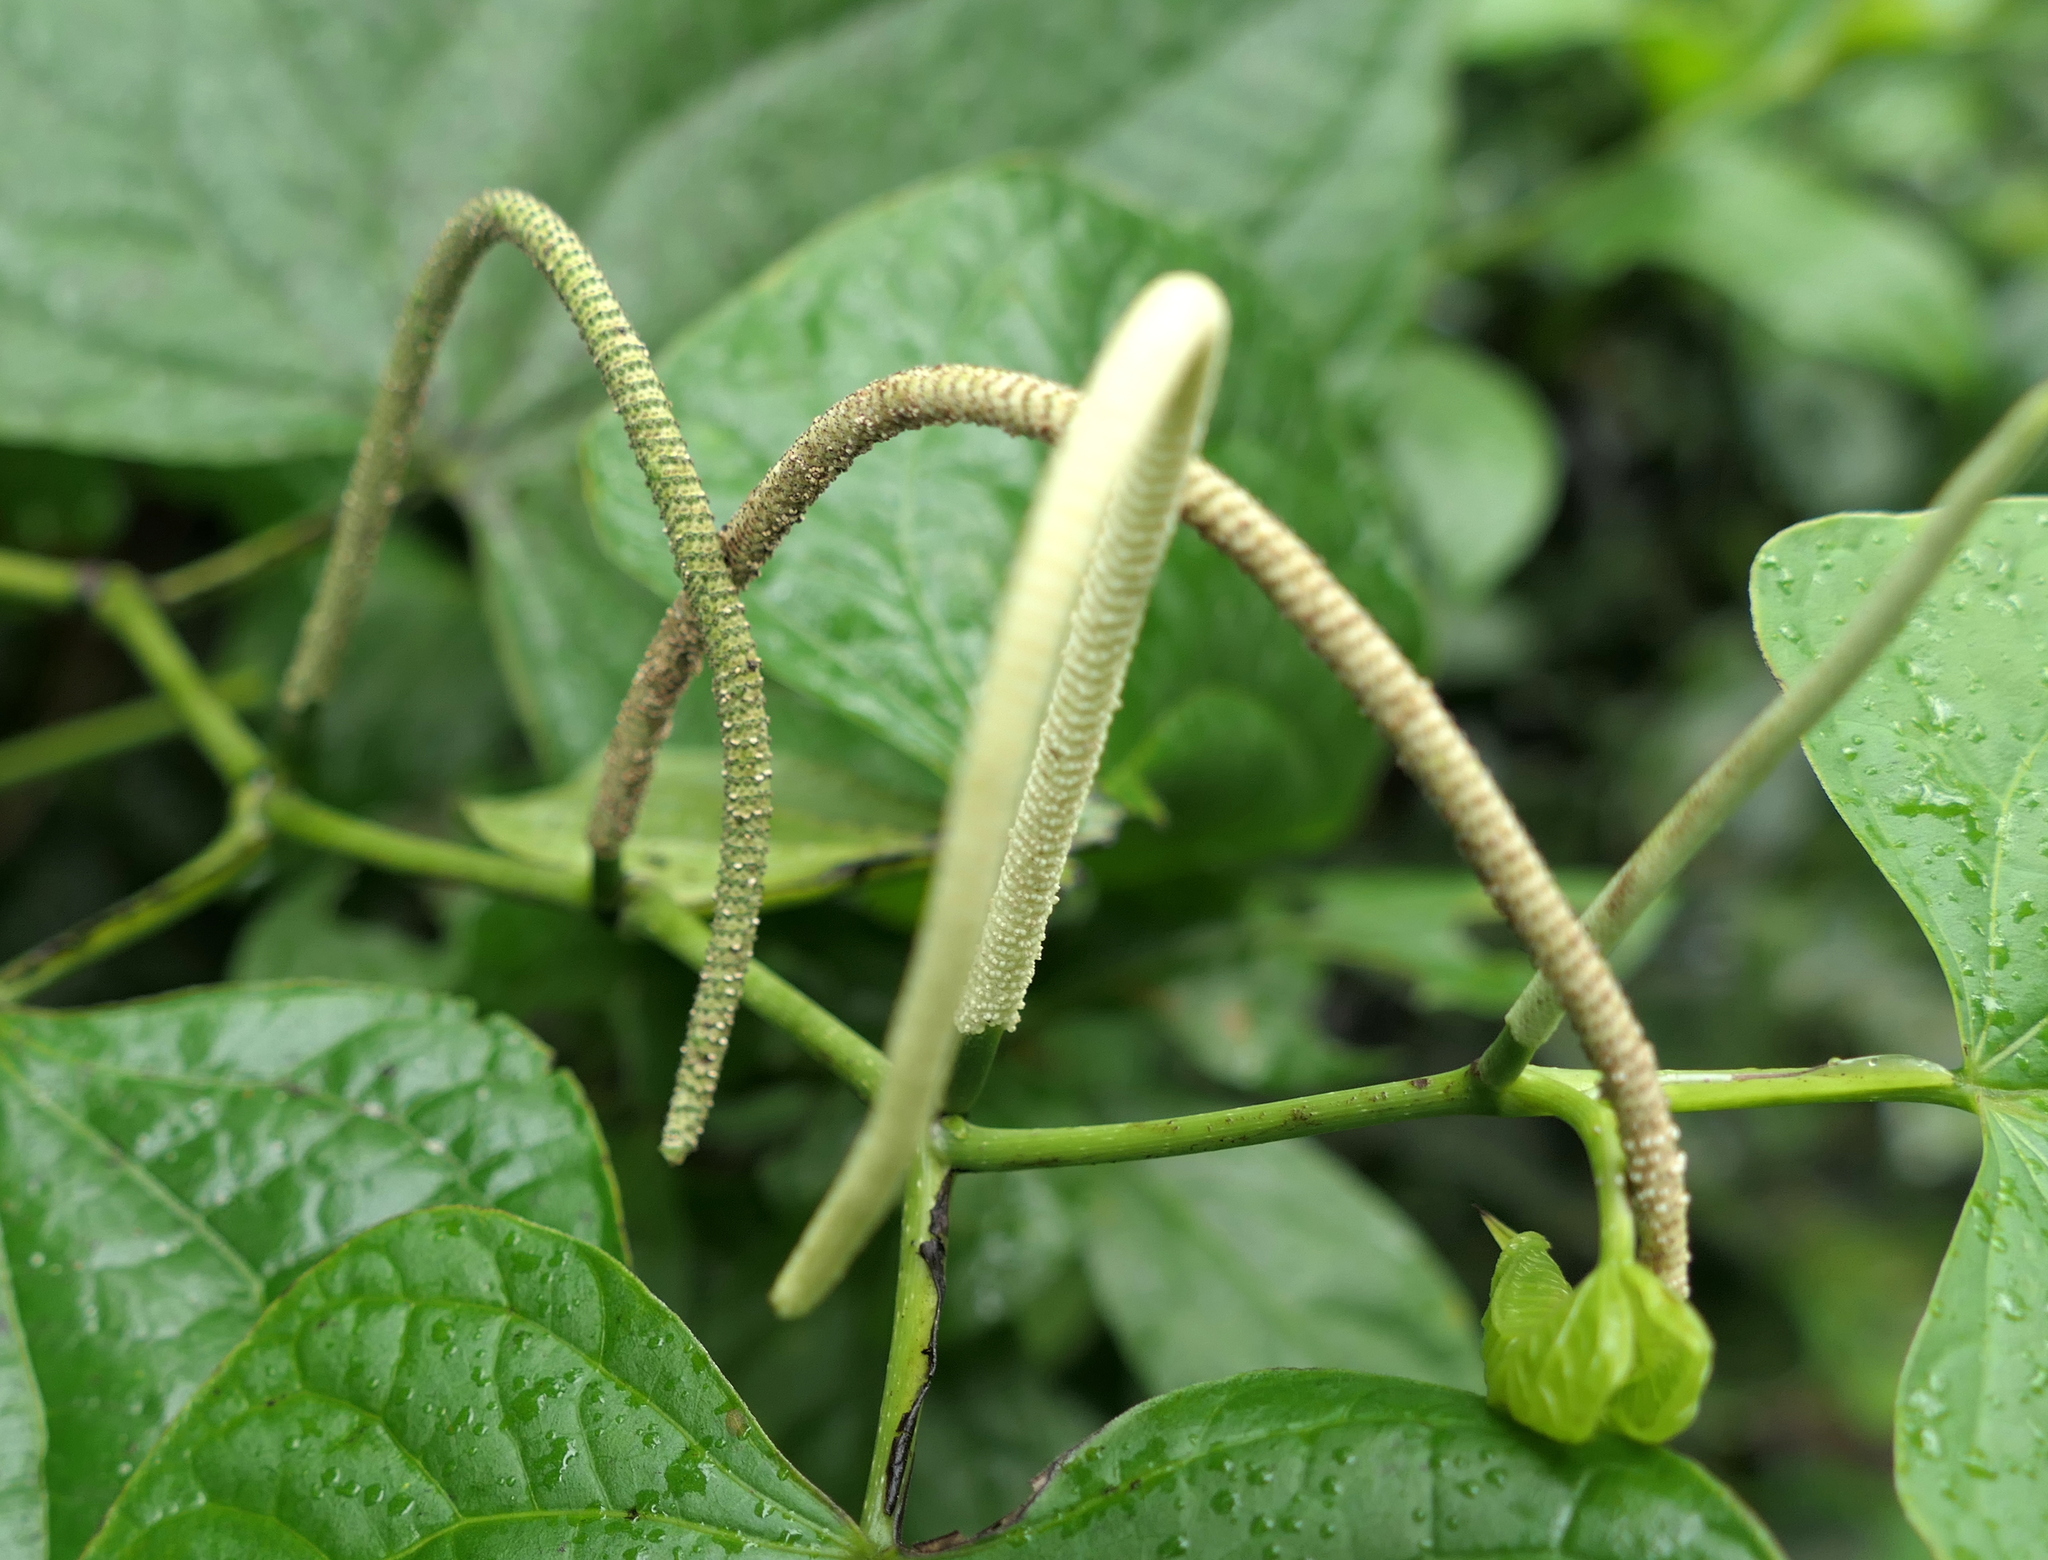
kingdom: Plantae
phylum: Tracheophyta
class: Magnoliopsida
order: Piperales
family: Piperaceae
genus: Piper
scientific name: Piper marginatum
